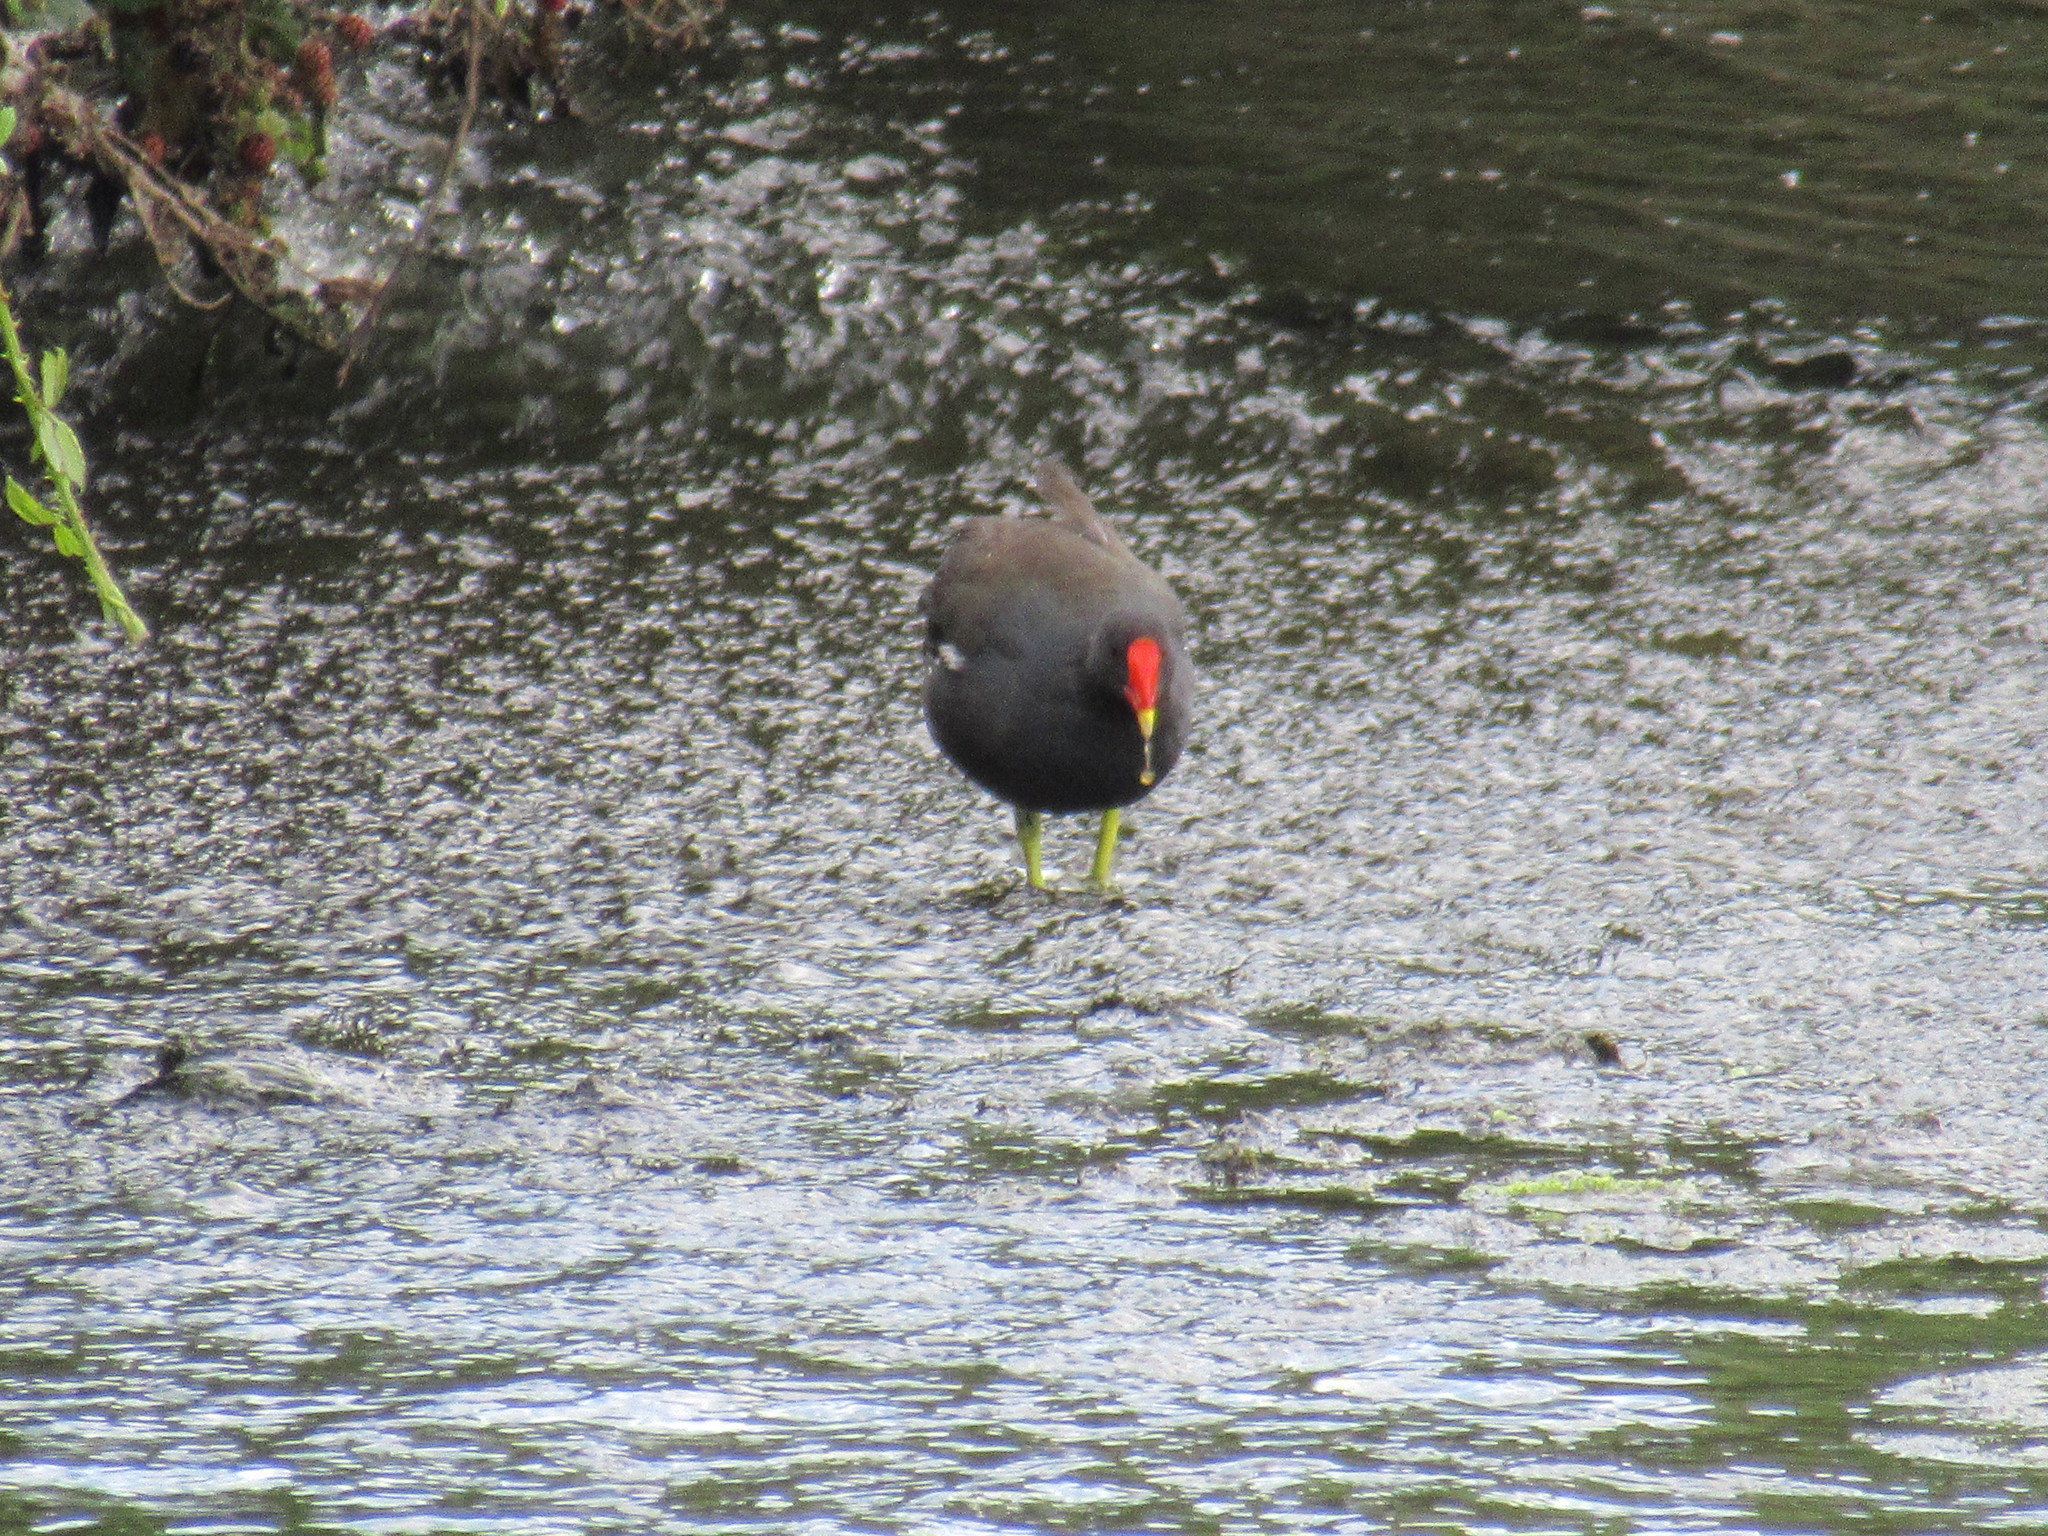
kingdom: Animalia
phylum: Chordata
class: Aves
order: Gruiformes
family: Rallidae
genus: Gallinula
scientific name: Gallinula chloropus
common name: Common moorhen
